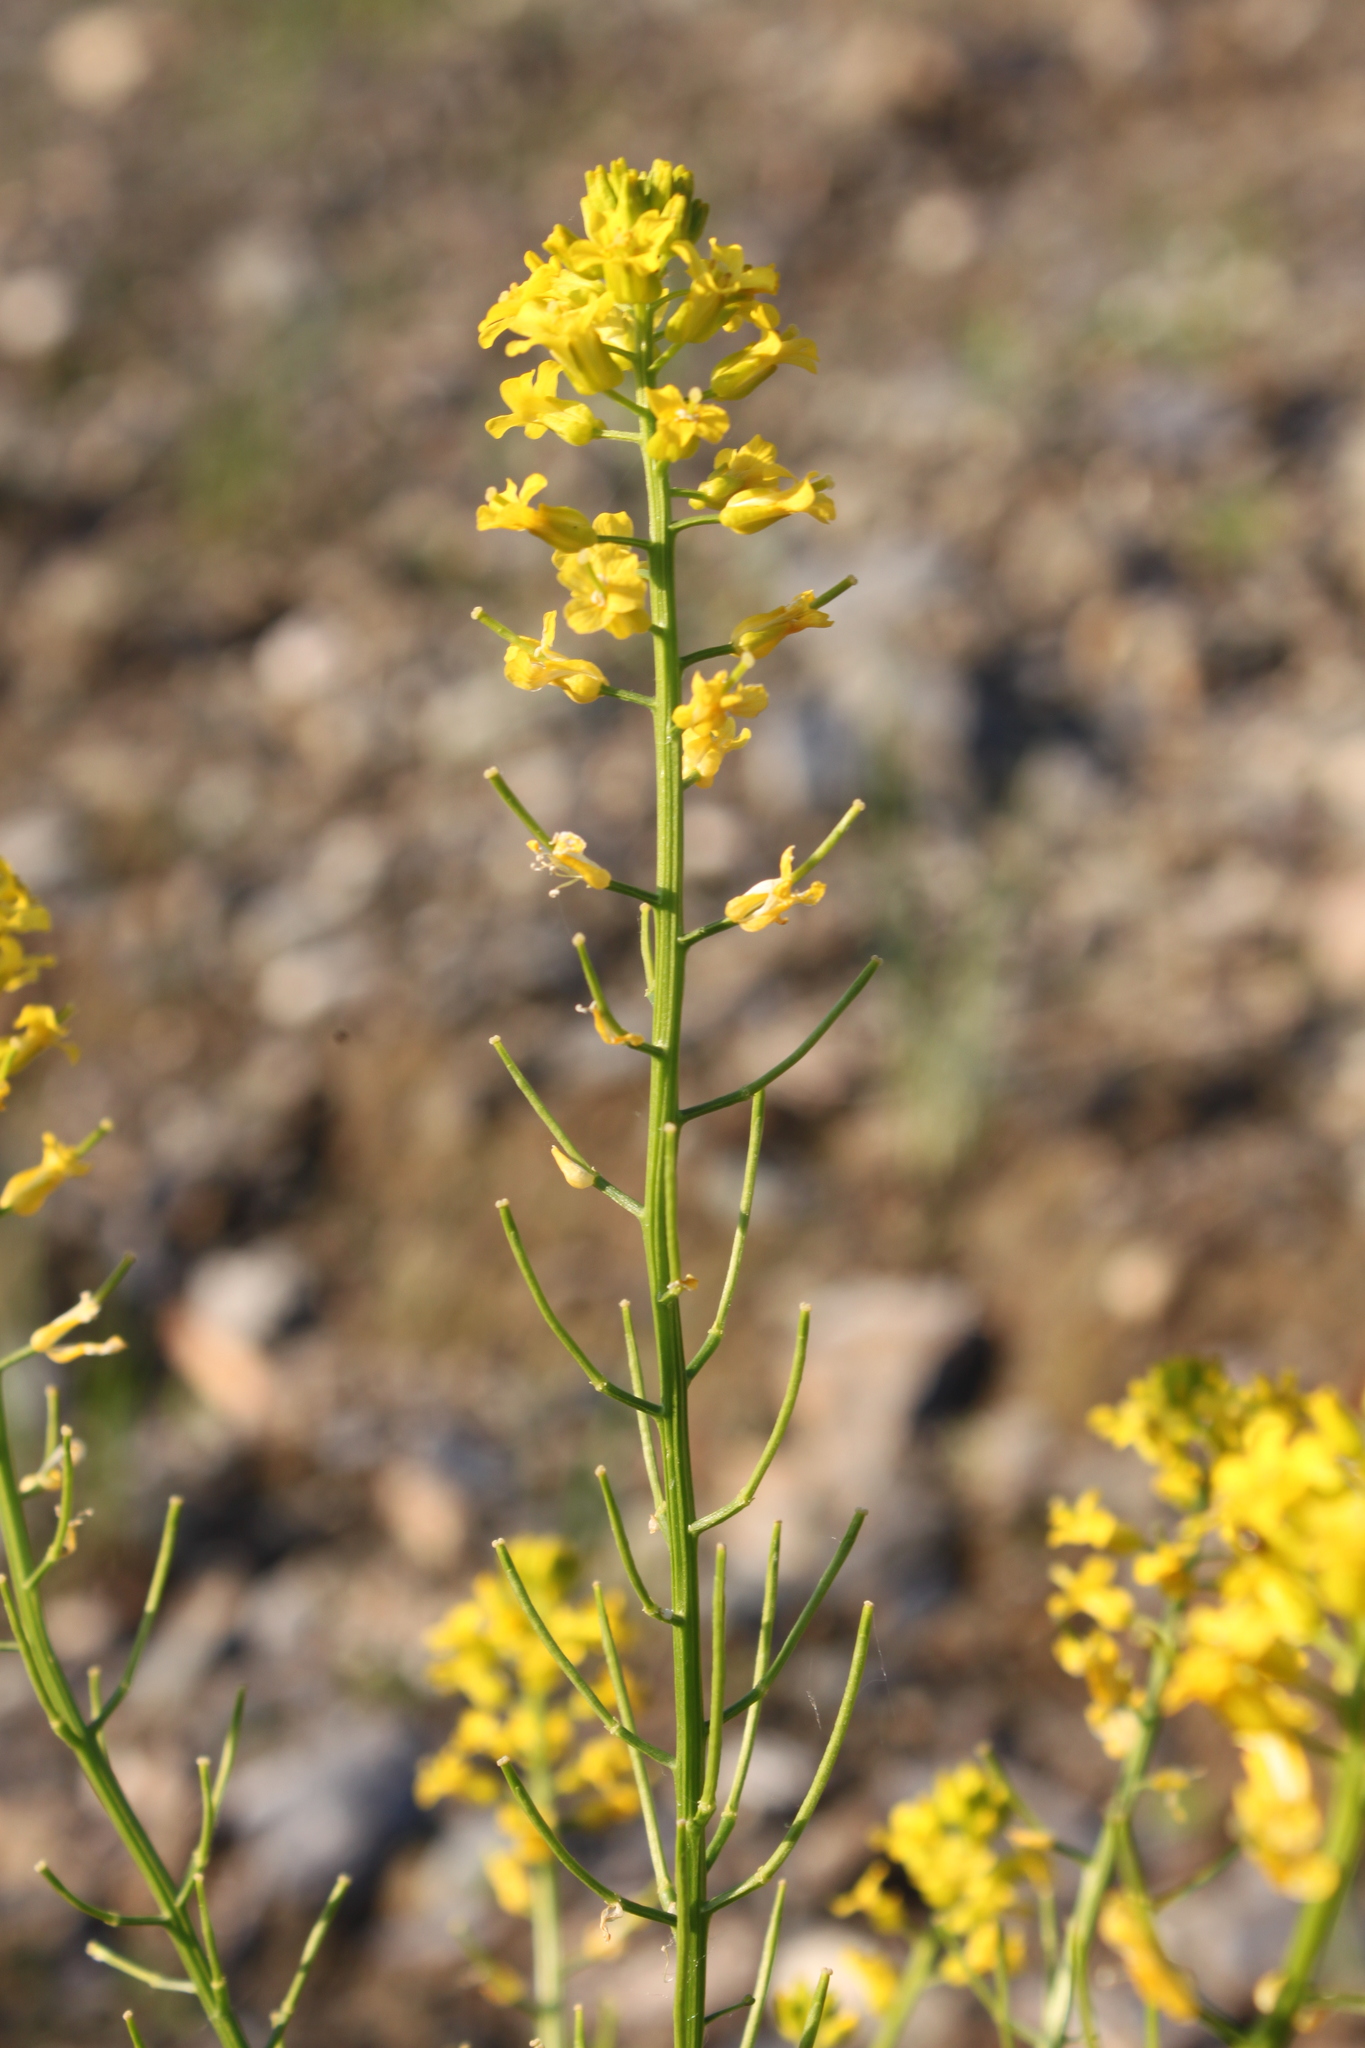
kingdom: Plantae
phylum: Tracheophyta
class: Magnoliopsida
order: Brassicales
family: Brassicaceae
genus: Barbarea
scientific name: Barbarea vulgaris
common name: Cressy-greens
